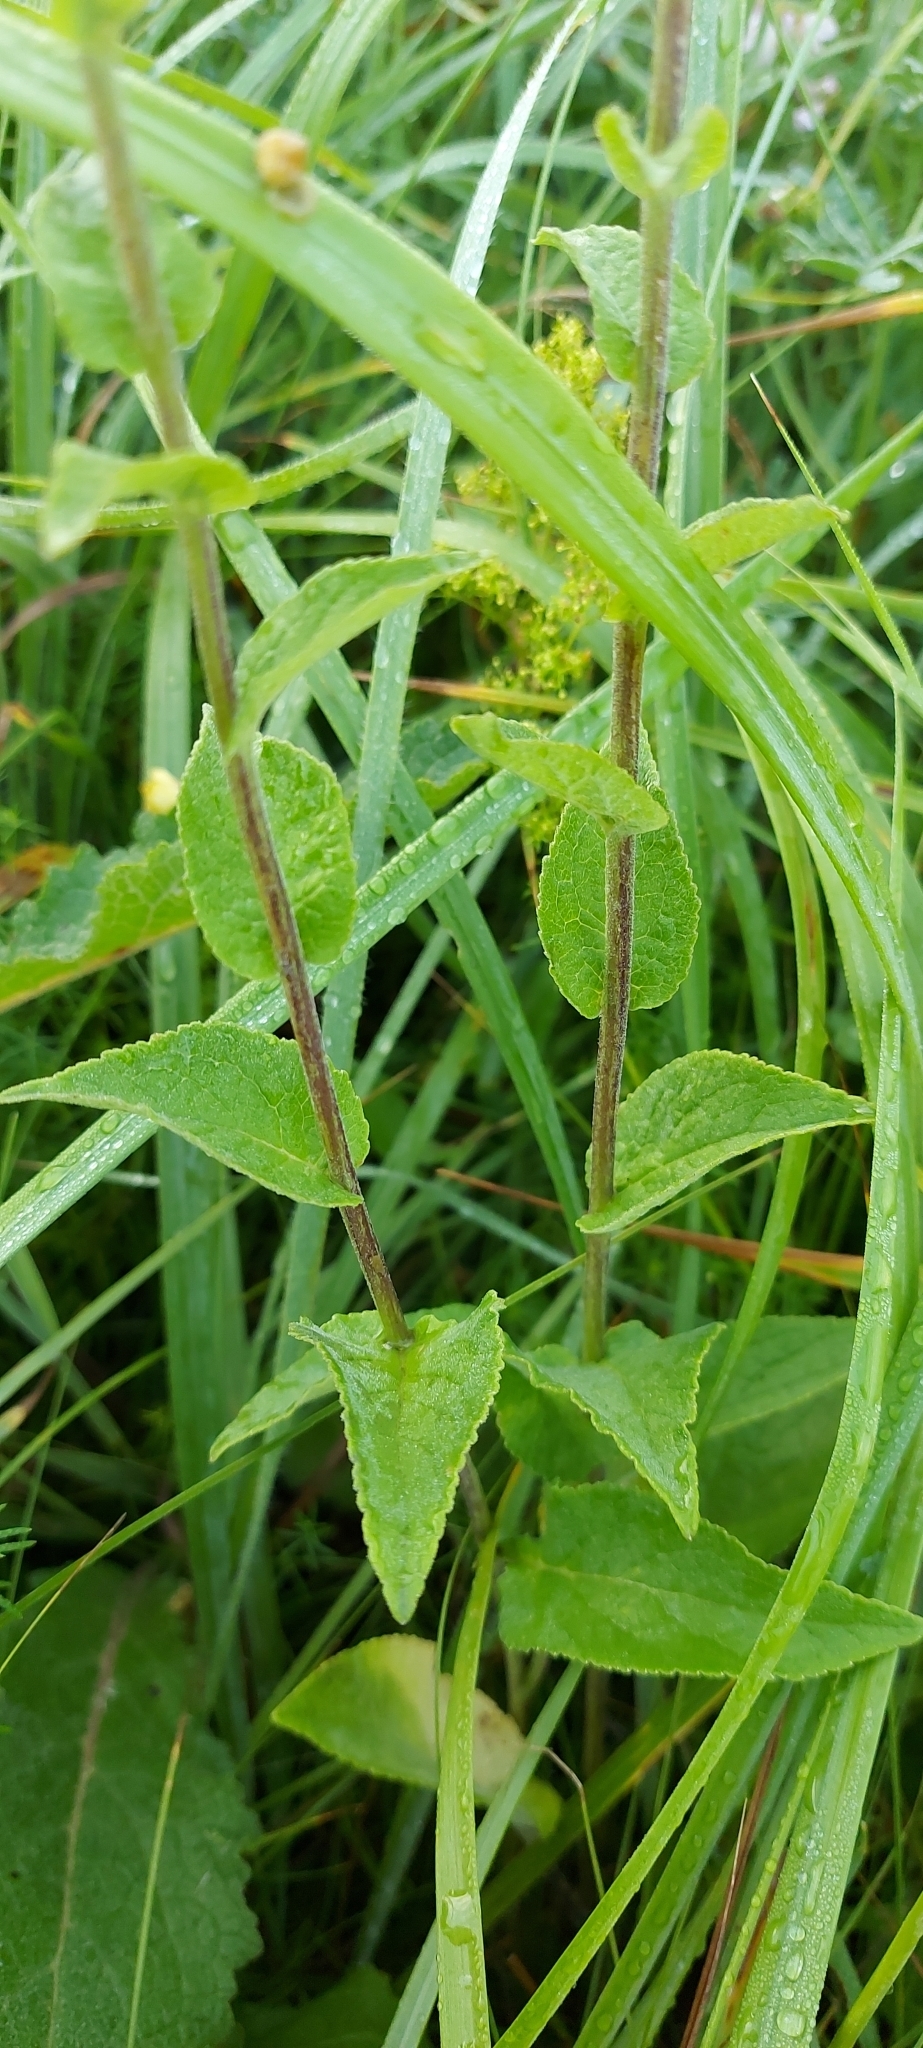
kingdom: Plantae
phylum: Tracheophyta
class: Magnoliopsida
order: Asterales
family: Campanulaceae
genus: Campanula
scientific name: Campanula bononiensis
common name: Pale bellflower
